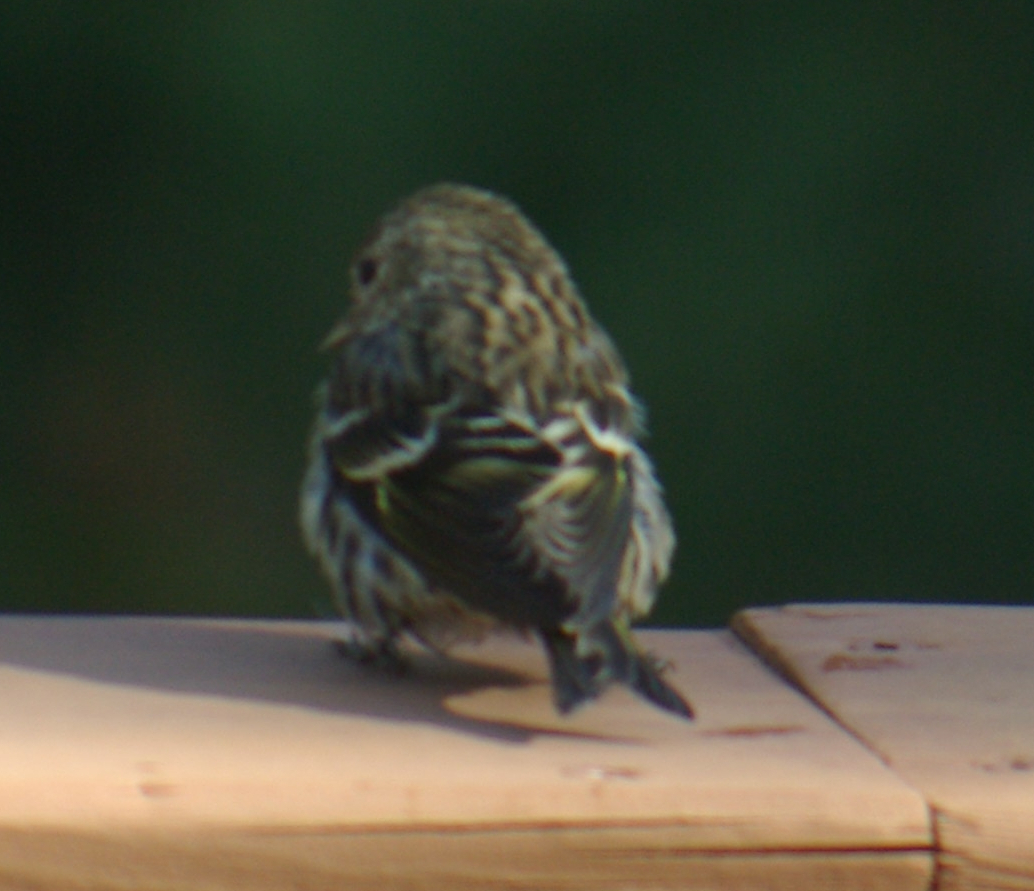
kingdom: Animalia
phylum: Chordata
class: Aves
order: Passeriformes
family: Fringillidae
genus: Spinus
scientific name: Spinus pinus
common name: Pine siskin
